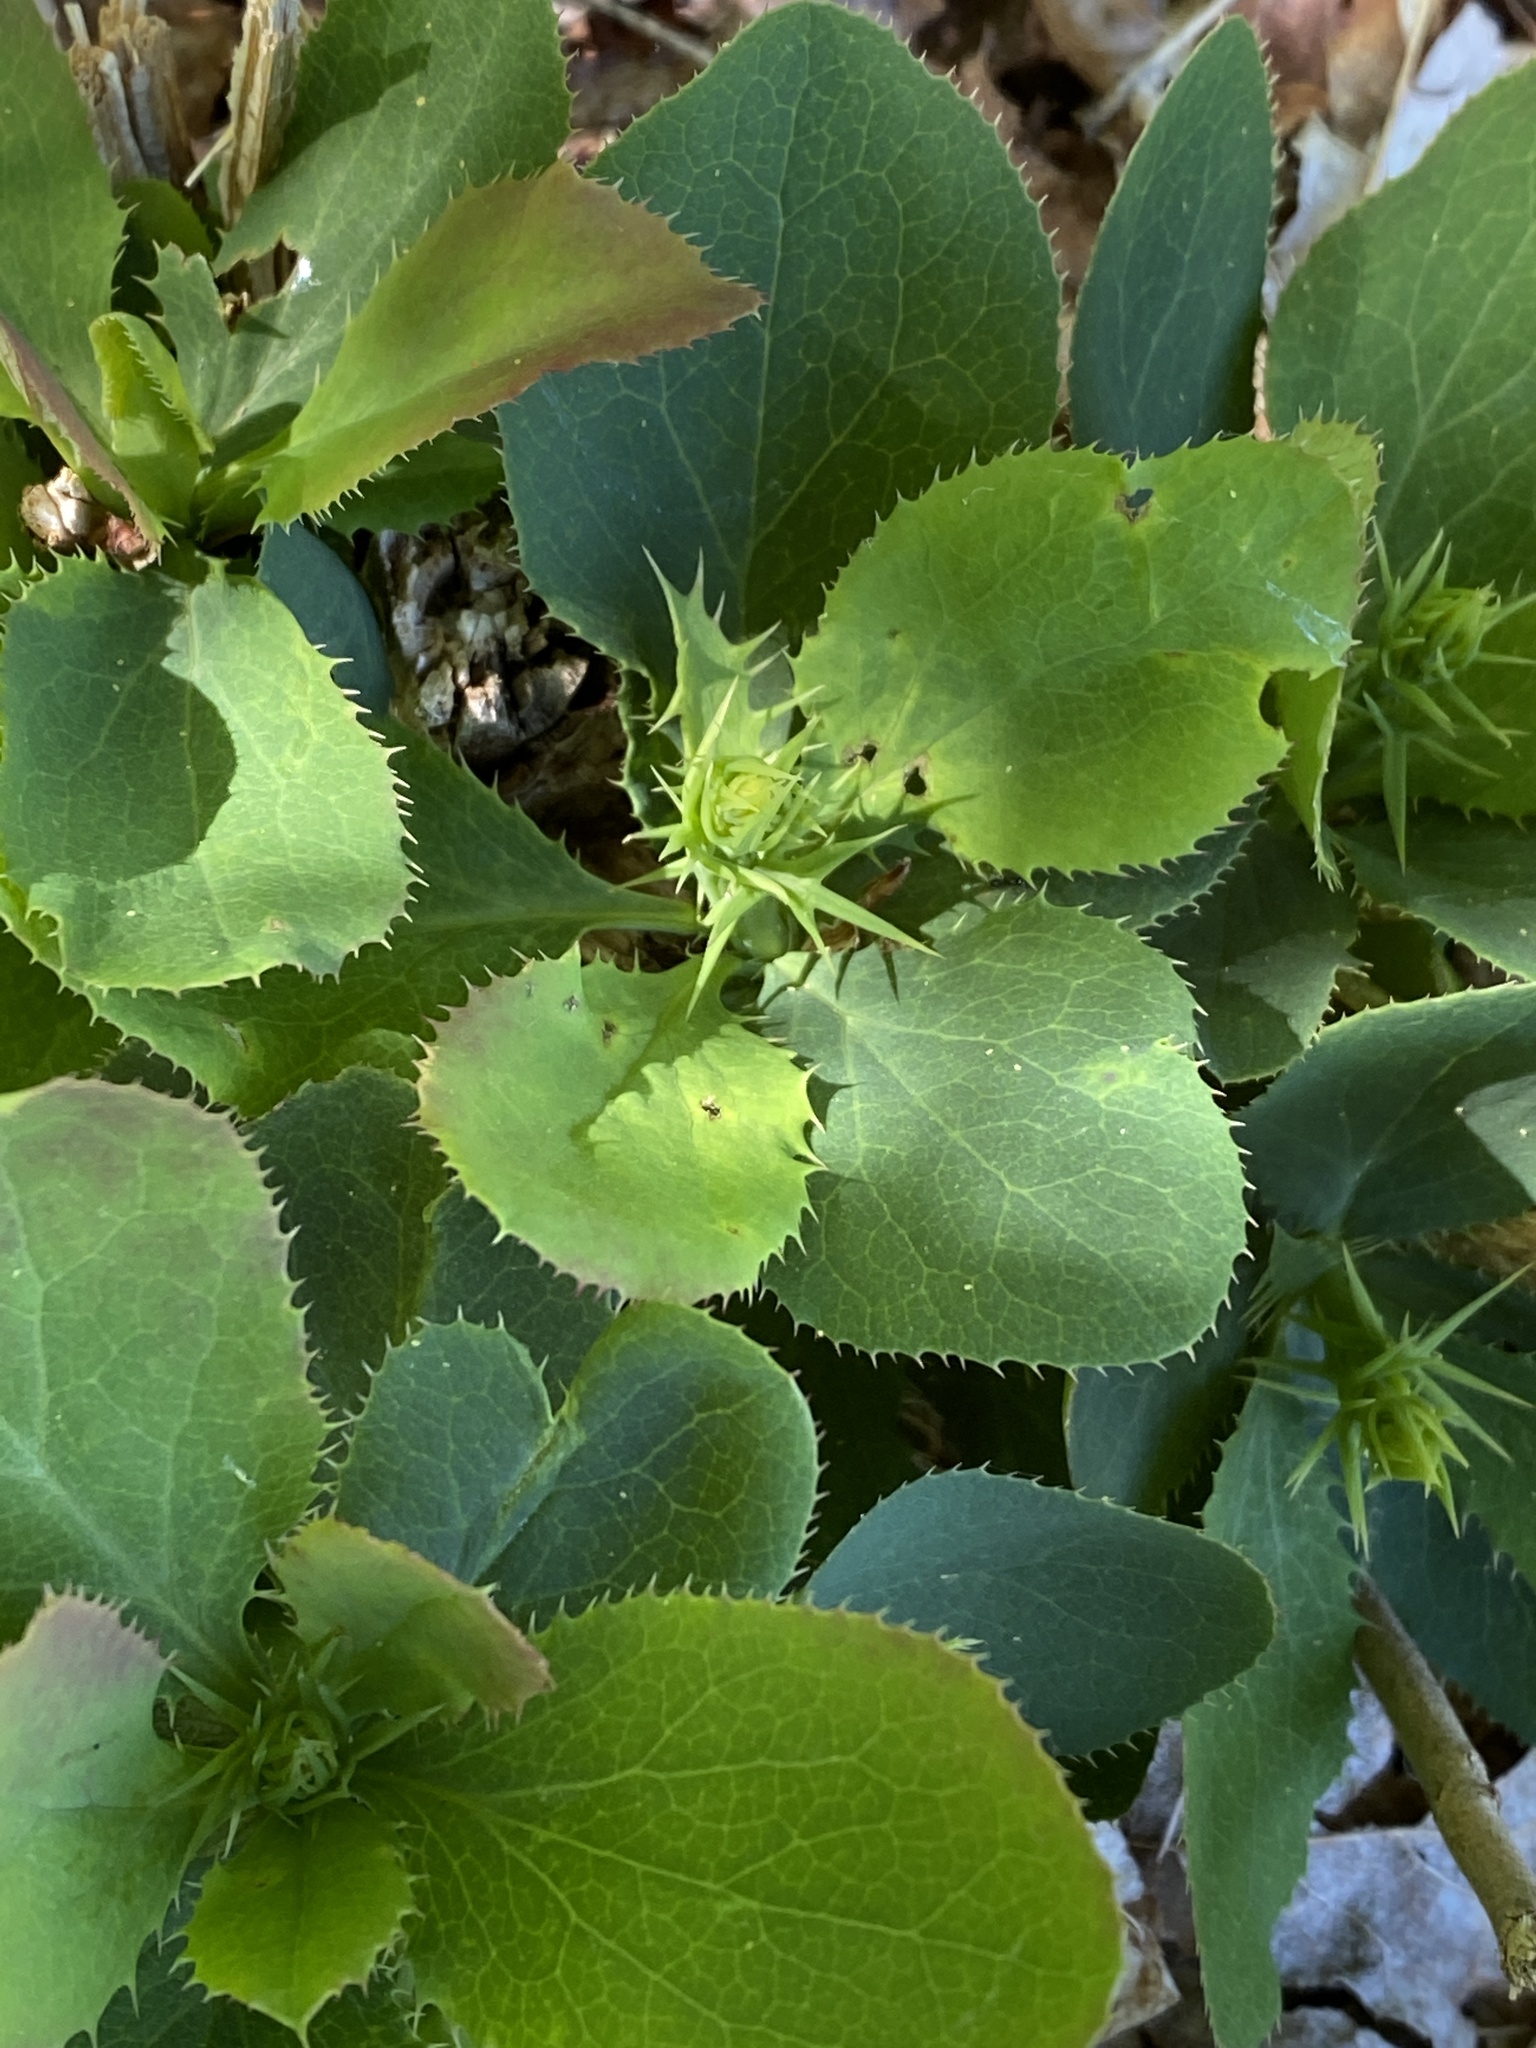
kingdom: Plantae
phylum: Tracheophyta
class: Magnoliopsida
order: Ranunculales
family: Berberidaceae
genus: Berberis
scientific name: Berberis vulgaris
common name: Barberry
